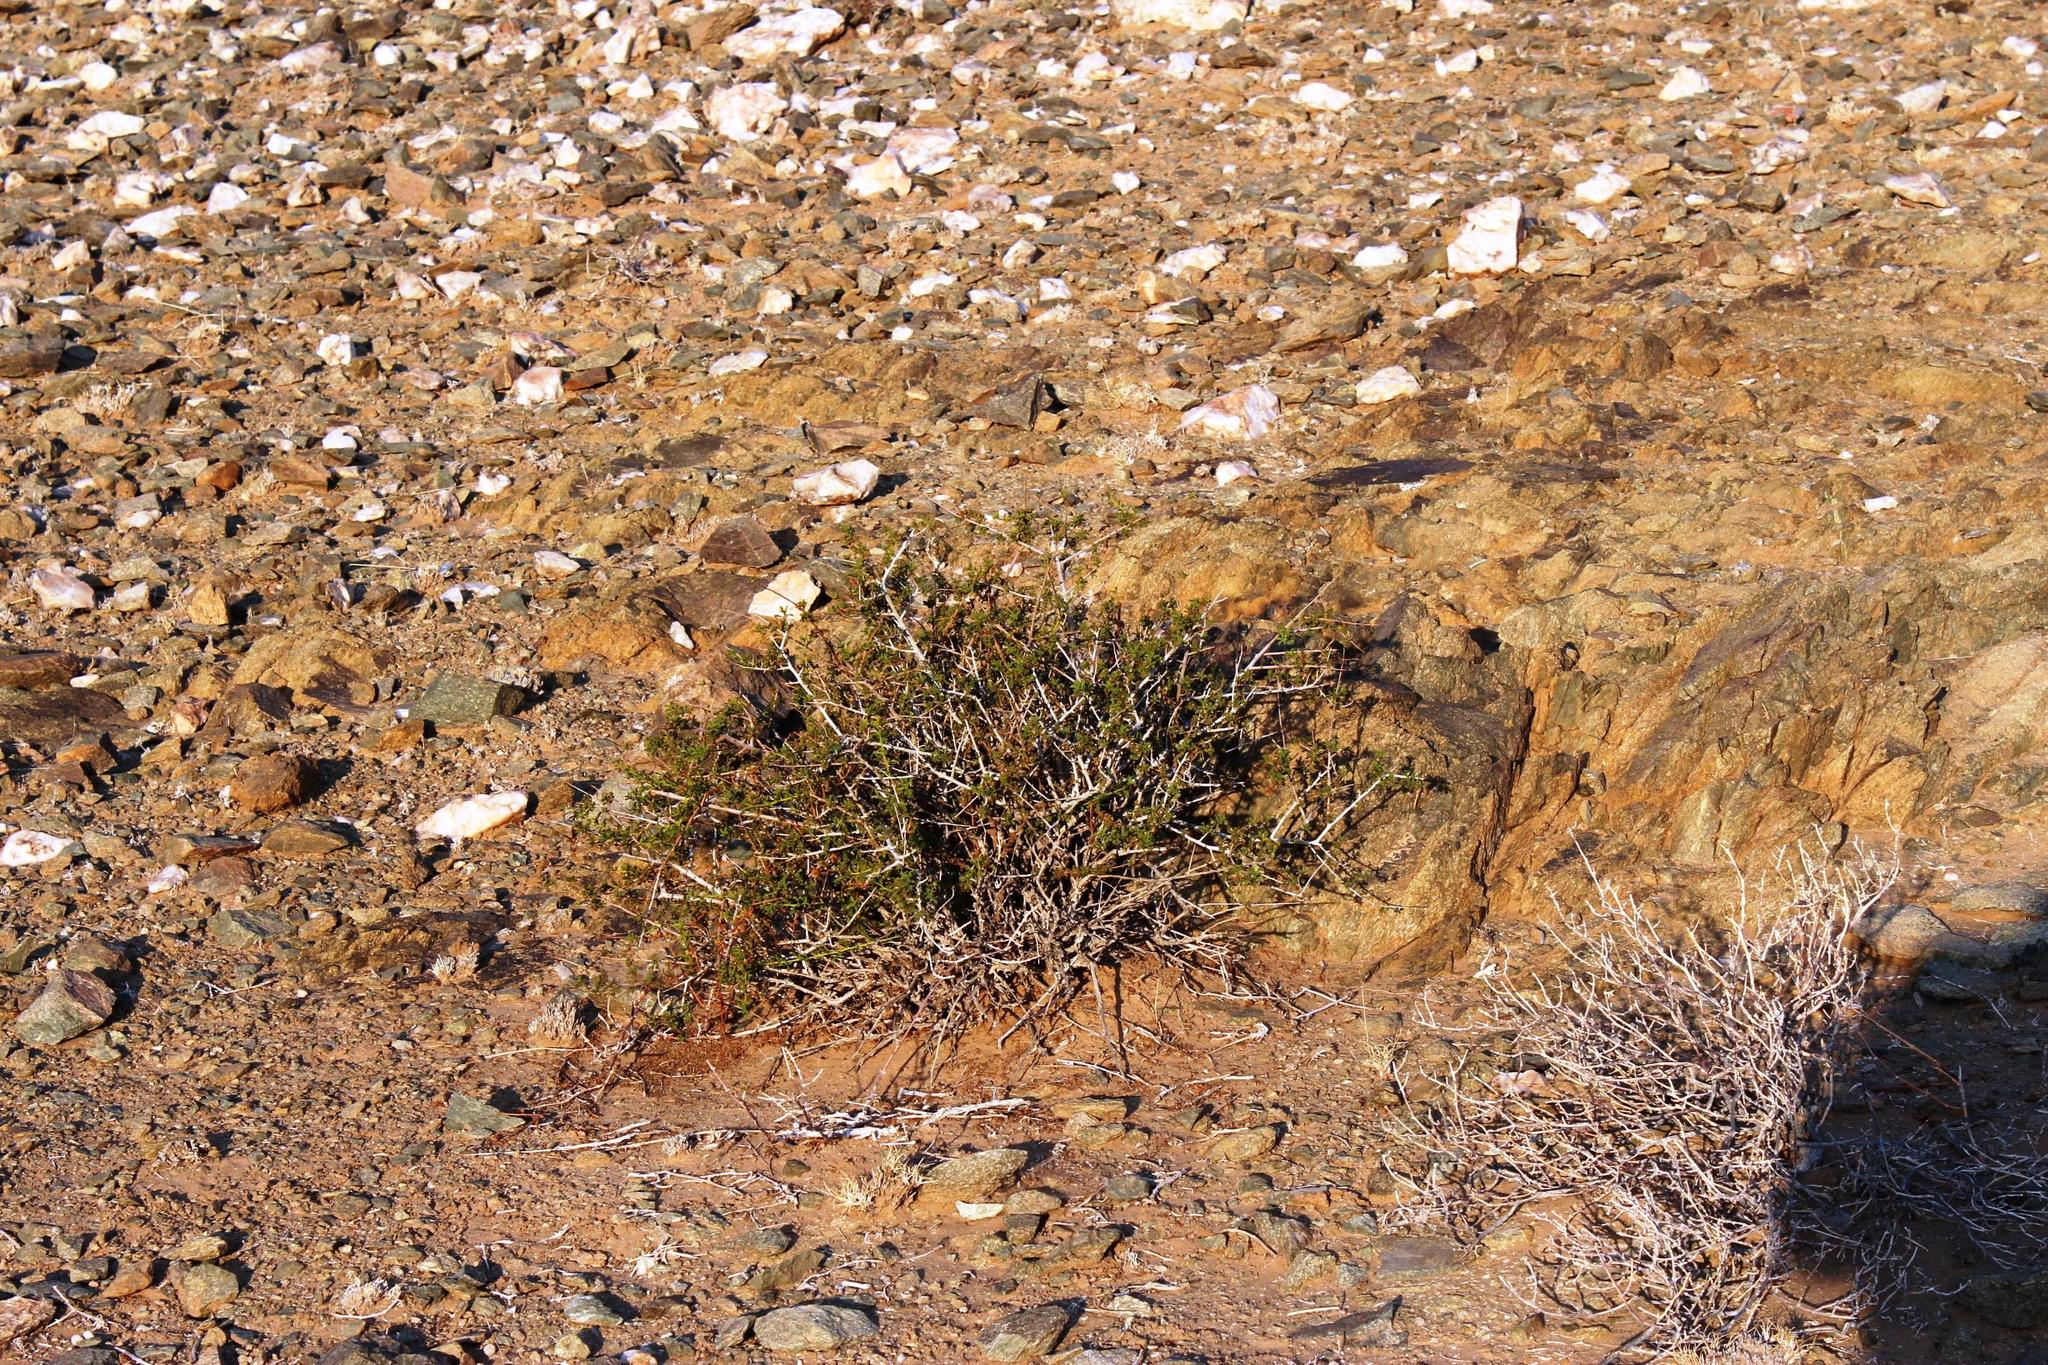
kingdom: Plantae
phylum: Tracheophyta
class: Magnoliopsida
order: Malvales
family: Malvaceae
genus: Hermannia
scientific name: Hermannia stricta
